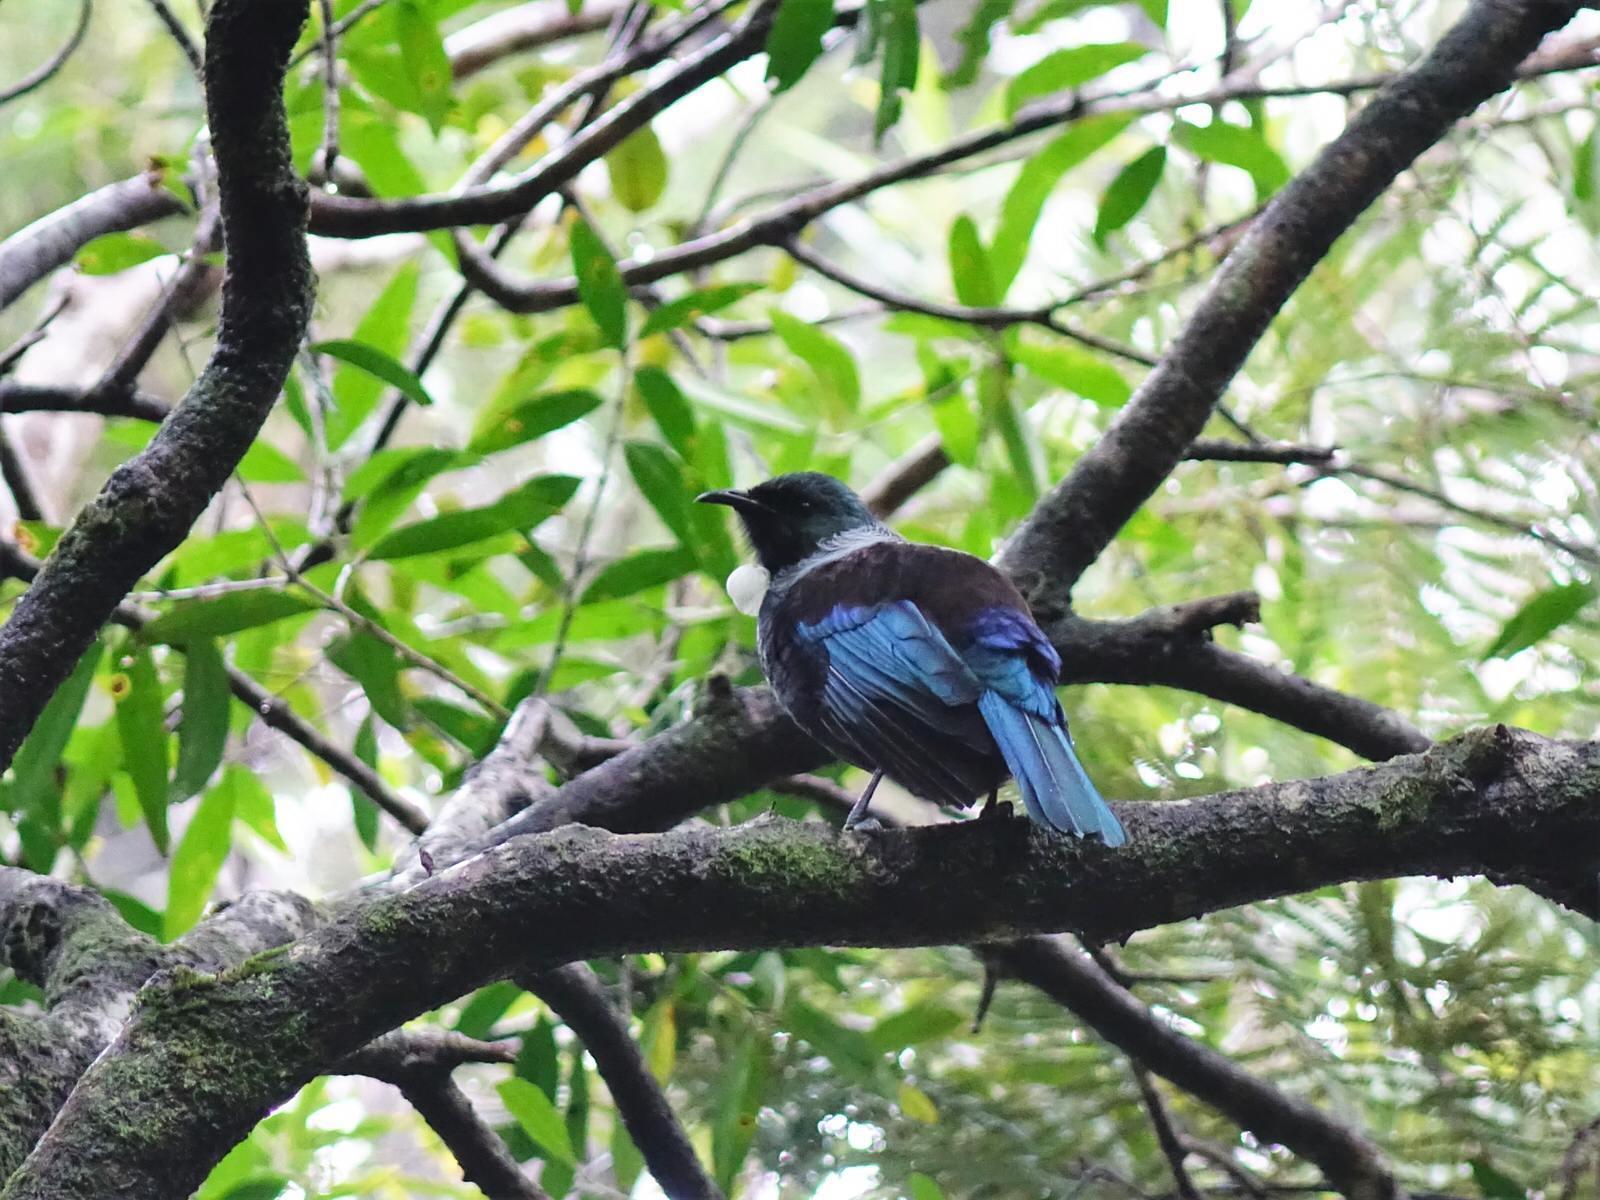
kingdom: Animalia
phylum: Chordata
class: Aves
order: Passeriformes
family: Meliphagidae
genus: Prosthemadera
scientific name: Prosthemadera novaeseelandiae
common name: Tui
